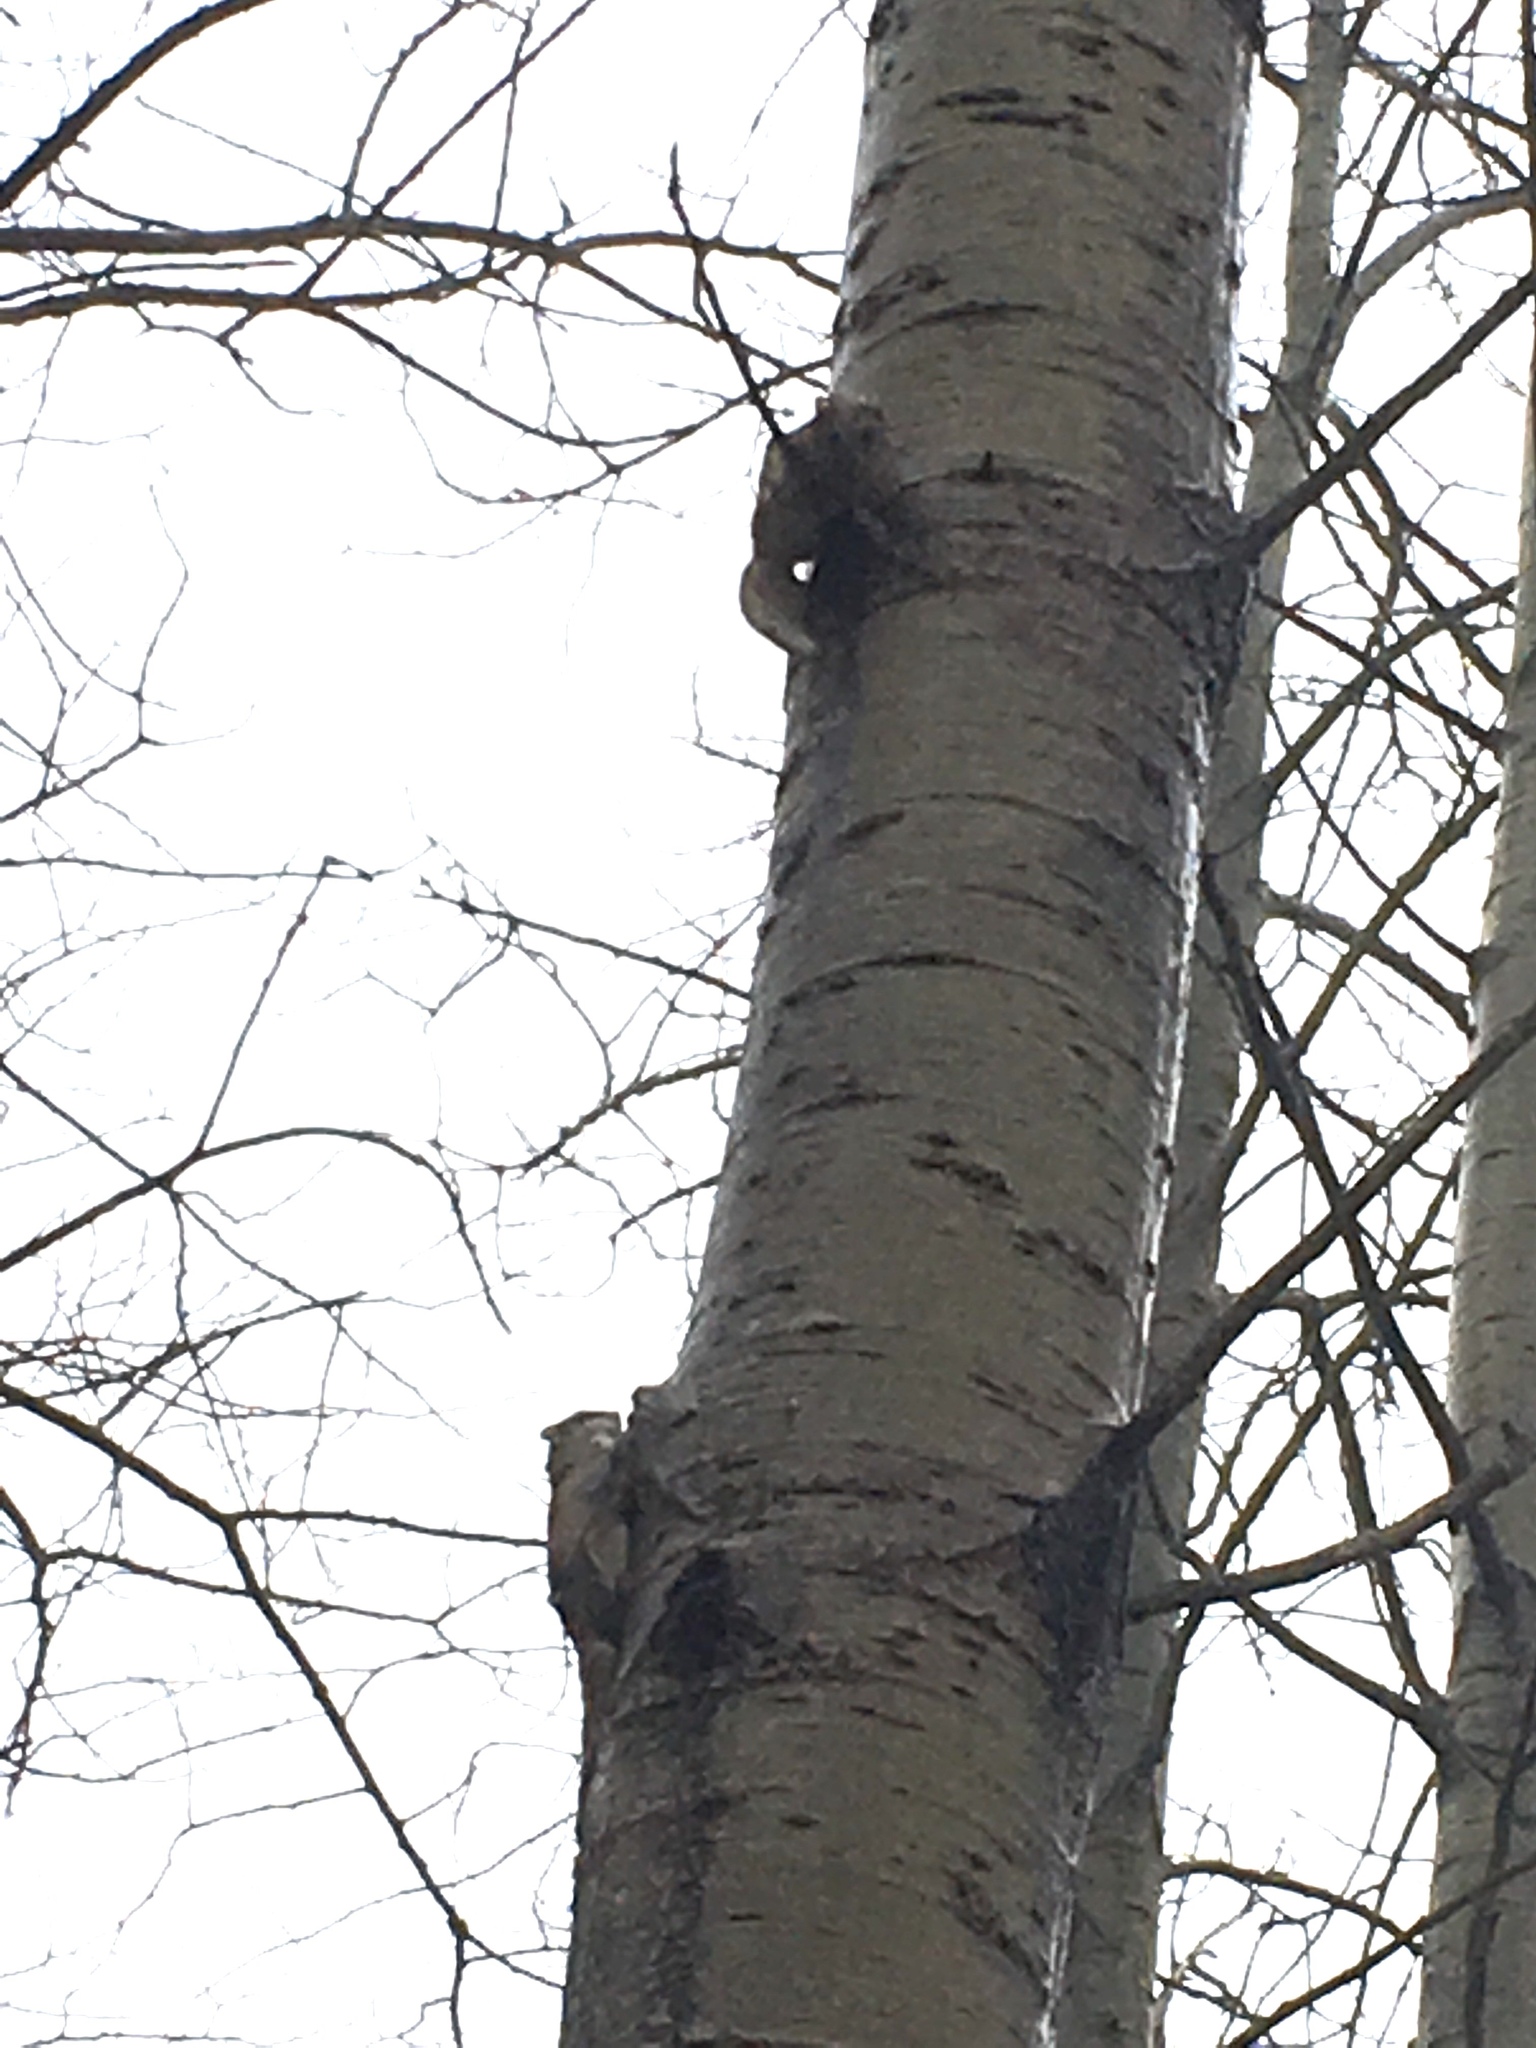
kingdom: Animalia
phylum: Chordata
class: Mammalia
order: Rodentia
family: Sciuridae
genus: Glaucomys
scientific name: Glaucomys sabrinus
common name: Northern flying squirrel
